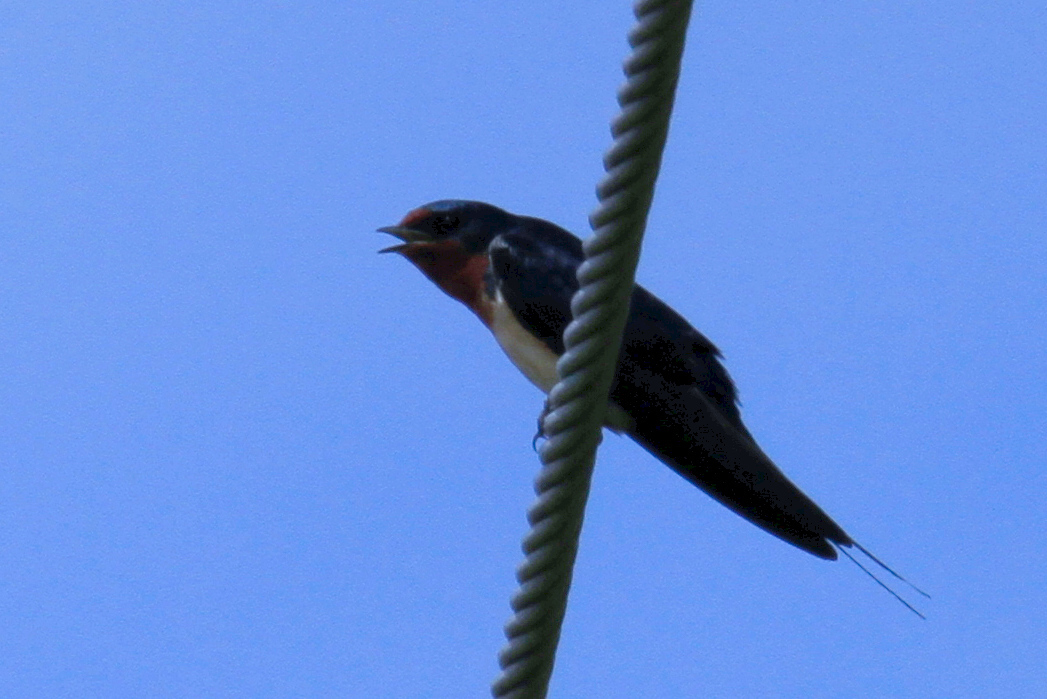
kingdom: Animalia
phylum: Chordata
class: Aves
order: Passeriformes
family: Hirundinidae
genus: Hirundo
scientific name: Hirundo rustica
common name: Barn swallow
